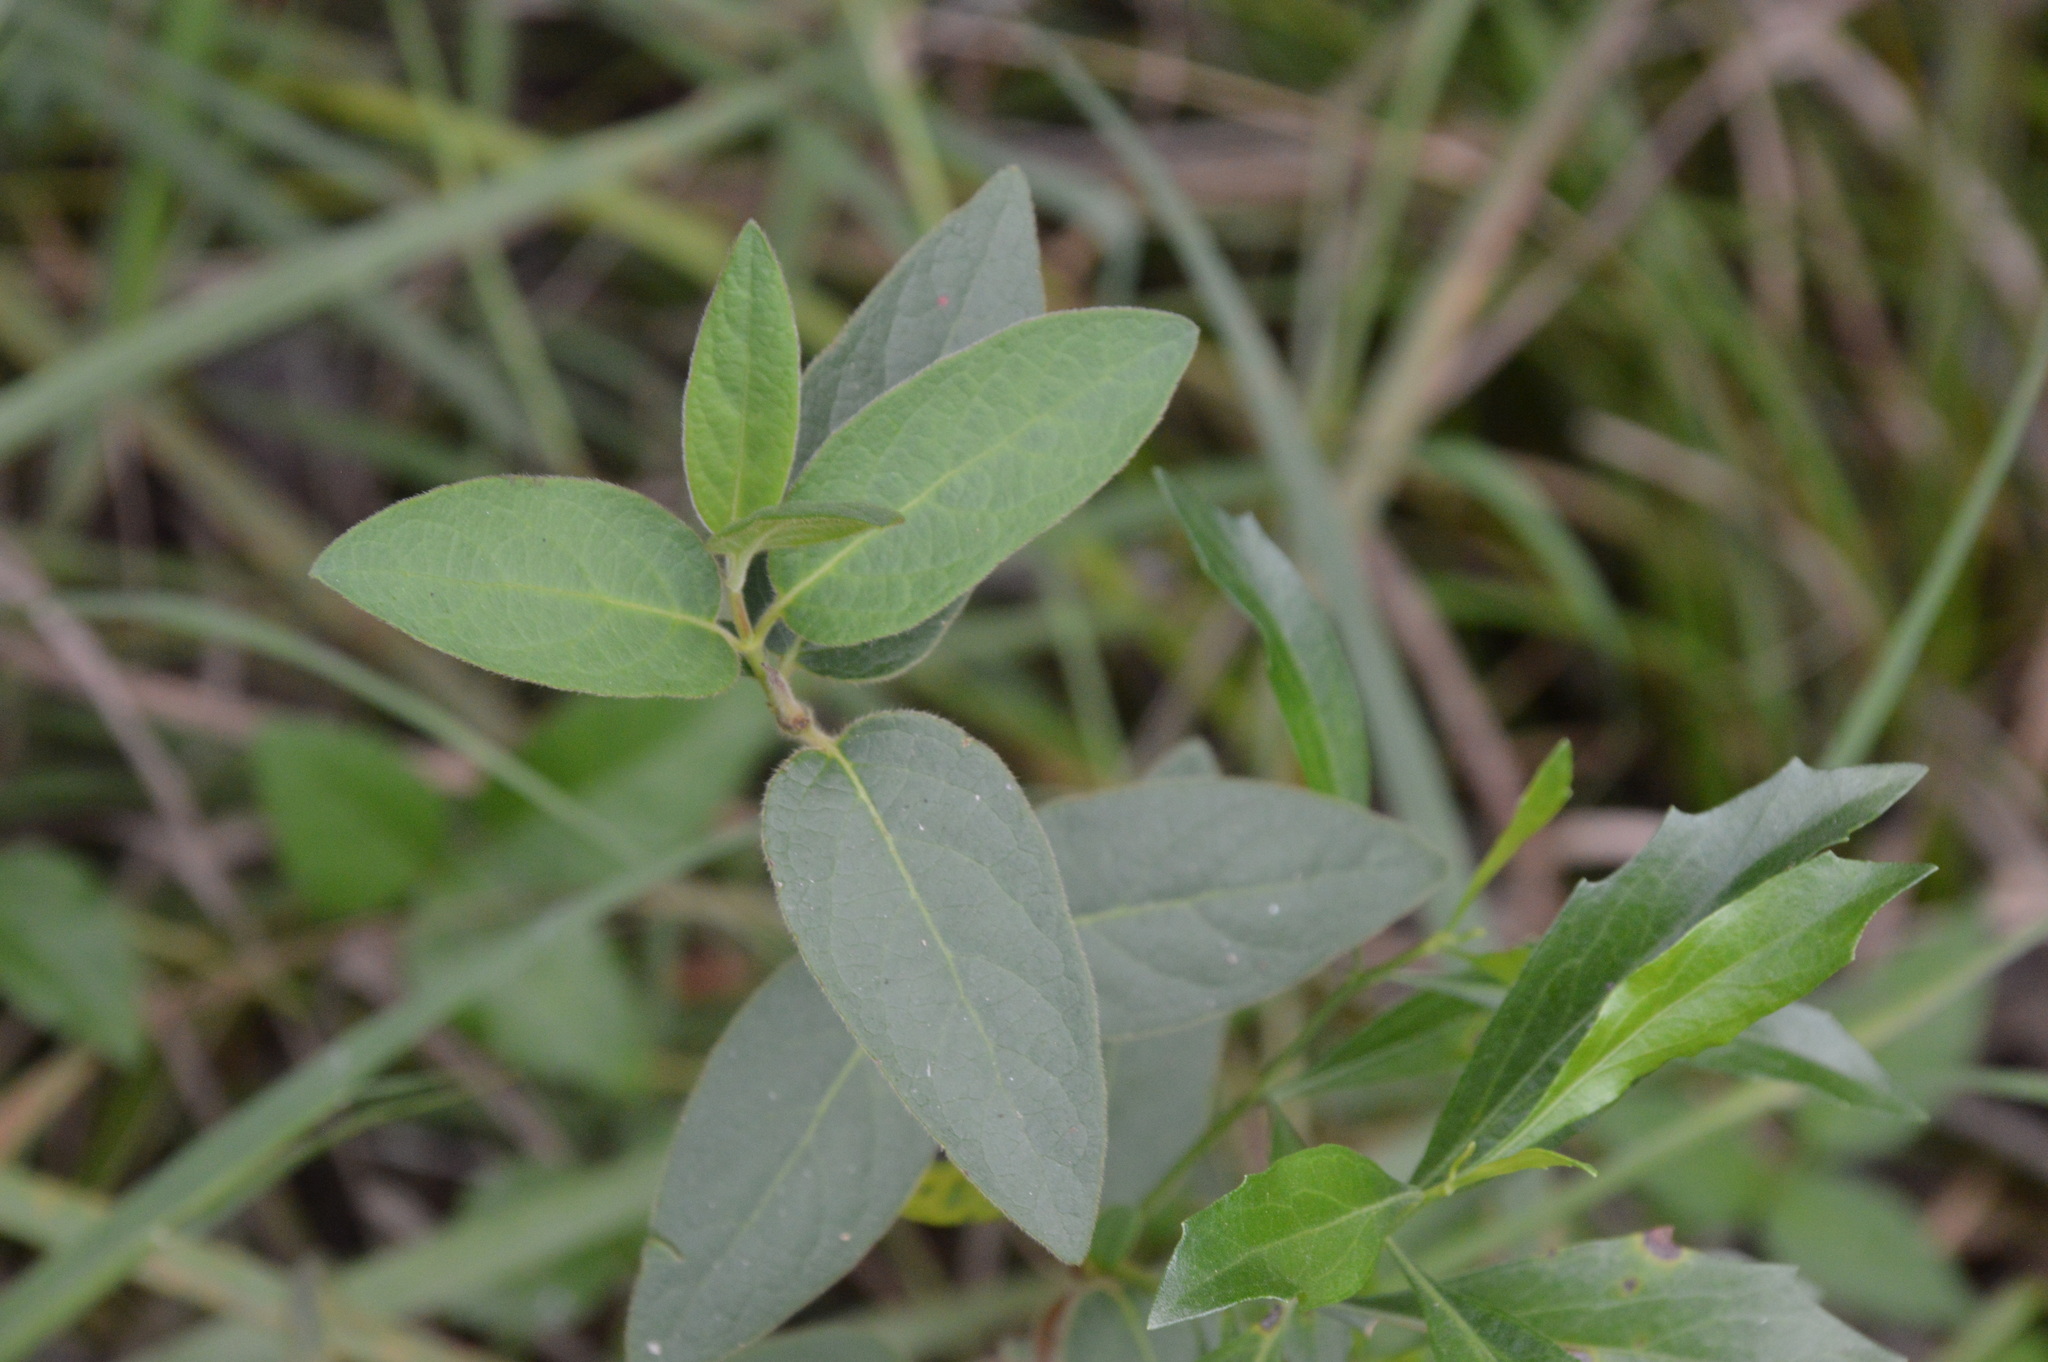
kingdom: Plantae
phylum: Tracheophyta
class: Magnoliopsida
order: Dipsacales
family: Caprifoliaceae
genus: Lonicera
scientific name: Lonicera japonica
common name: Japanese honeysuckle
